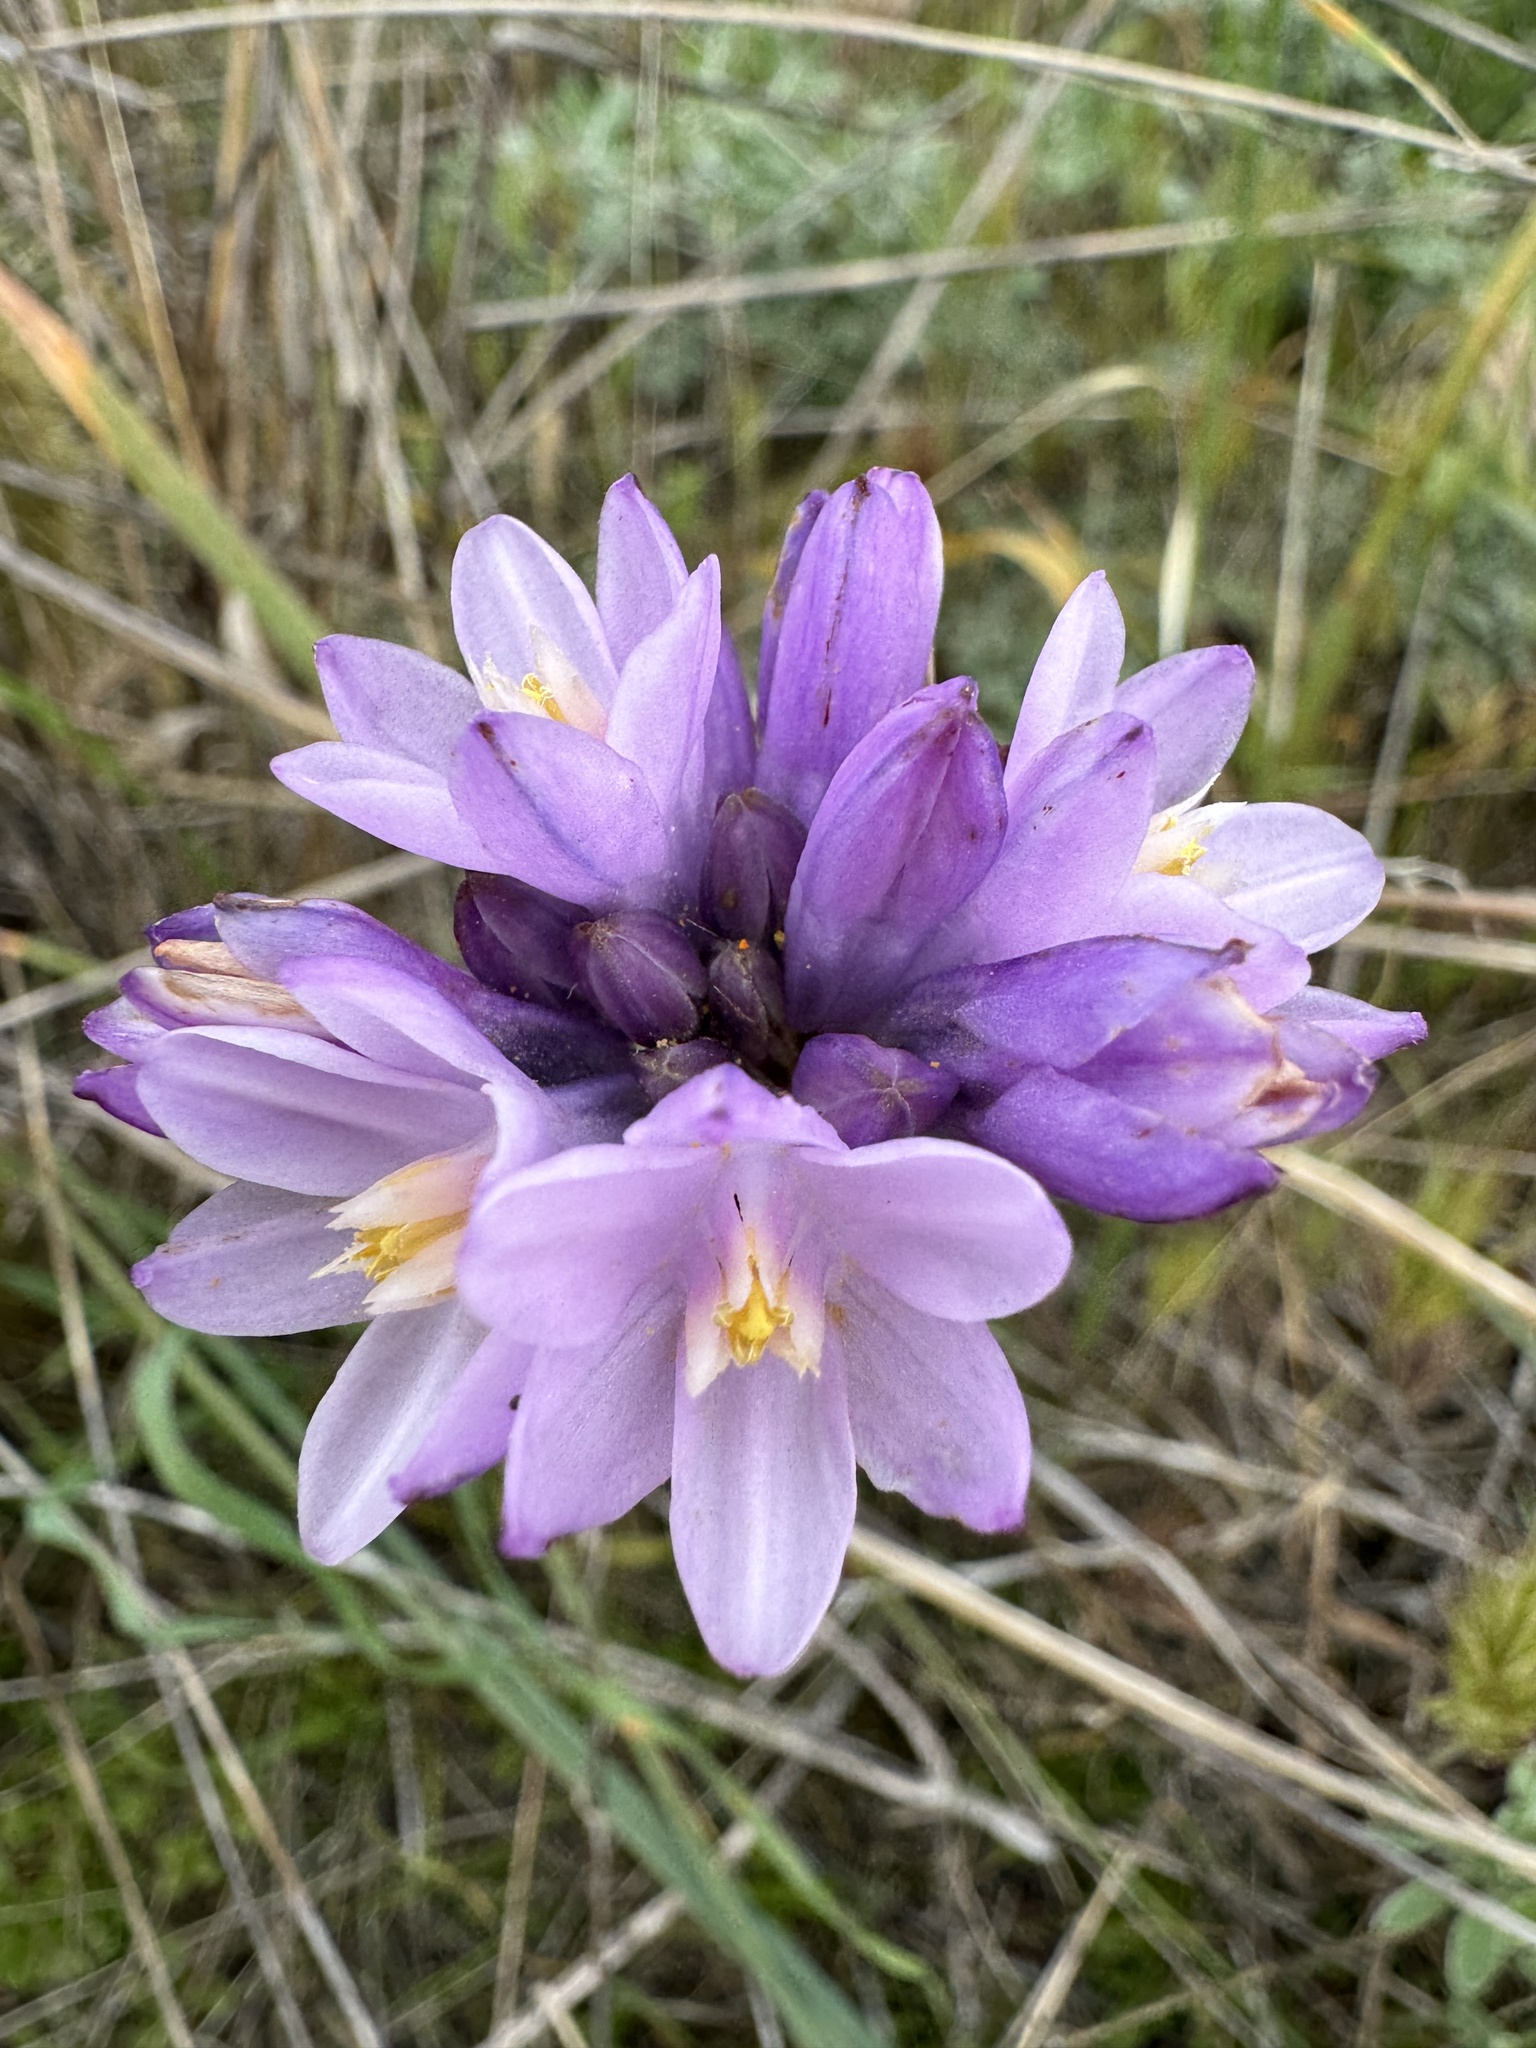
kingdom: Plantae
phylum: Tracheophyta
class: Liliopsida
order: Asparagales
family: Asparagaceae
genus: Dipterostemon
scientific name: Dipterostemon capitatus
